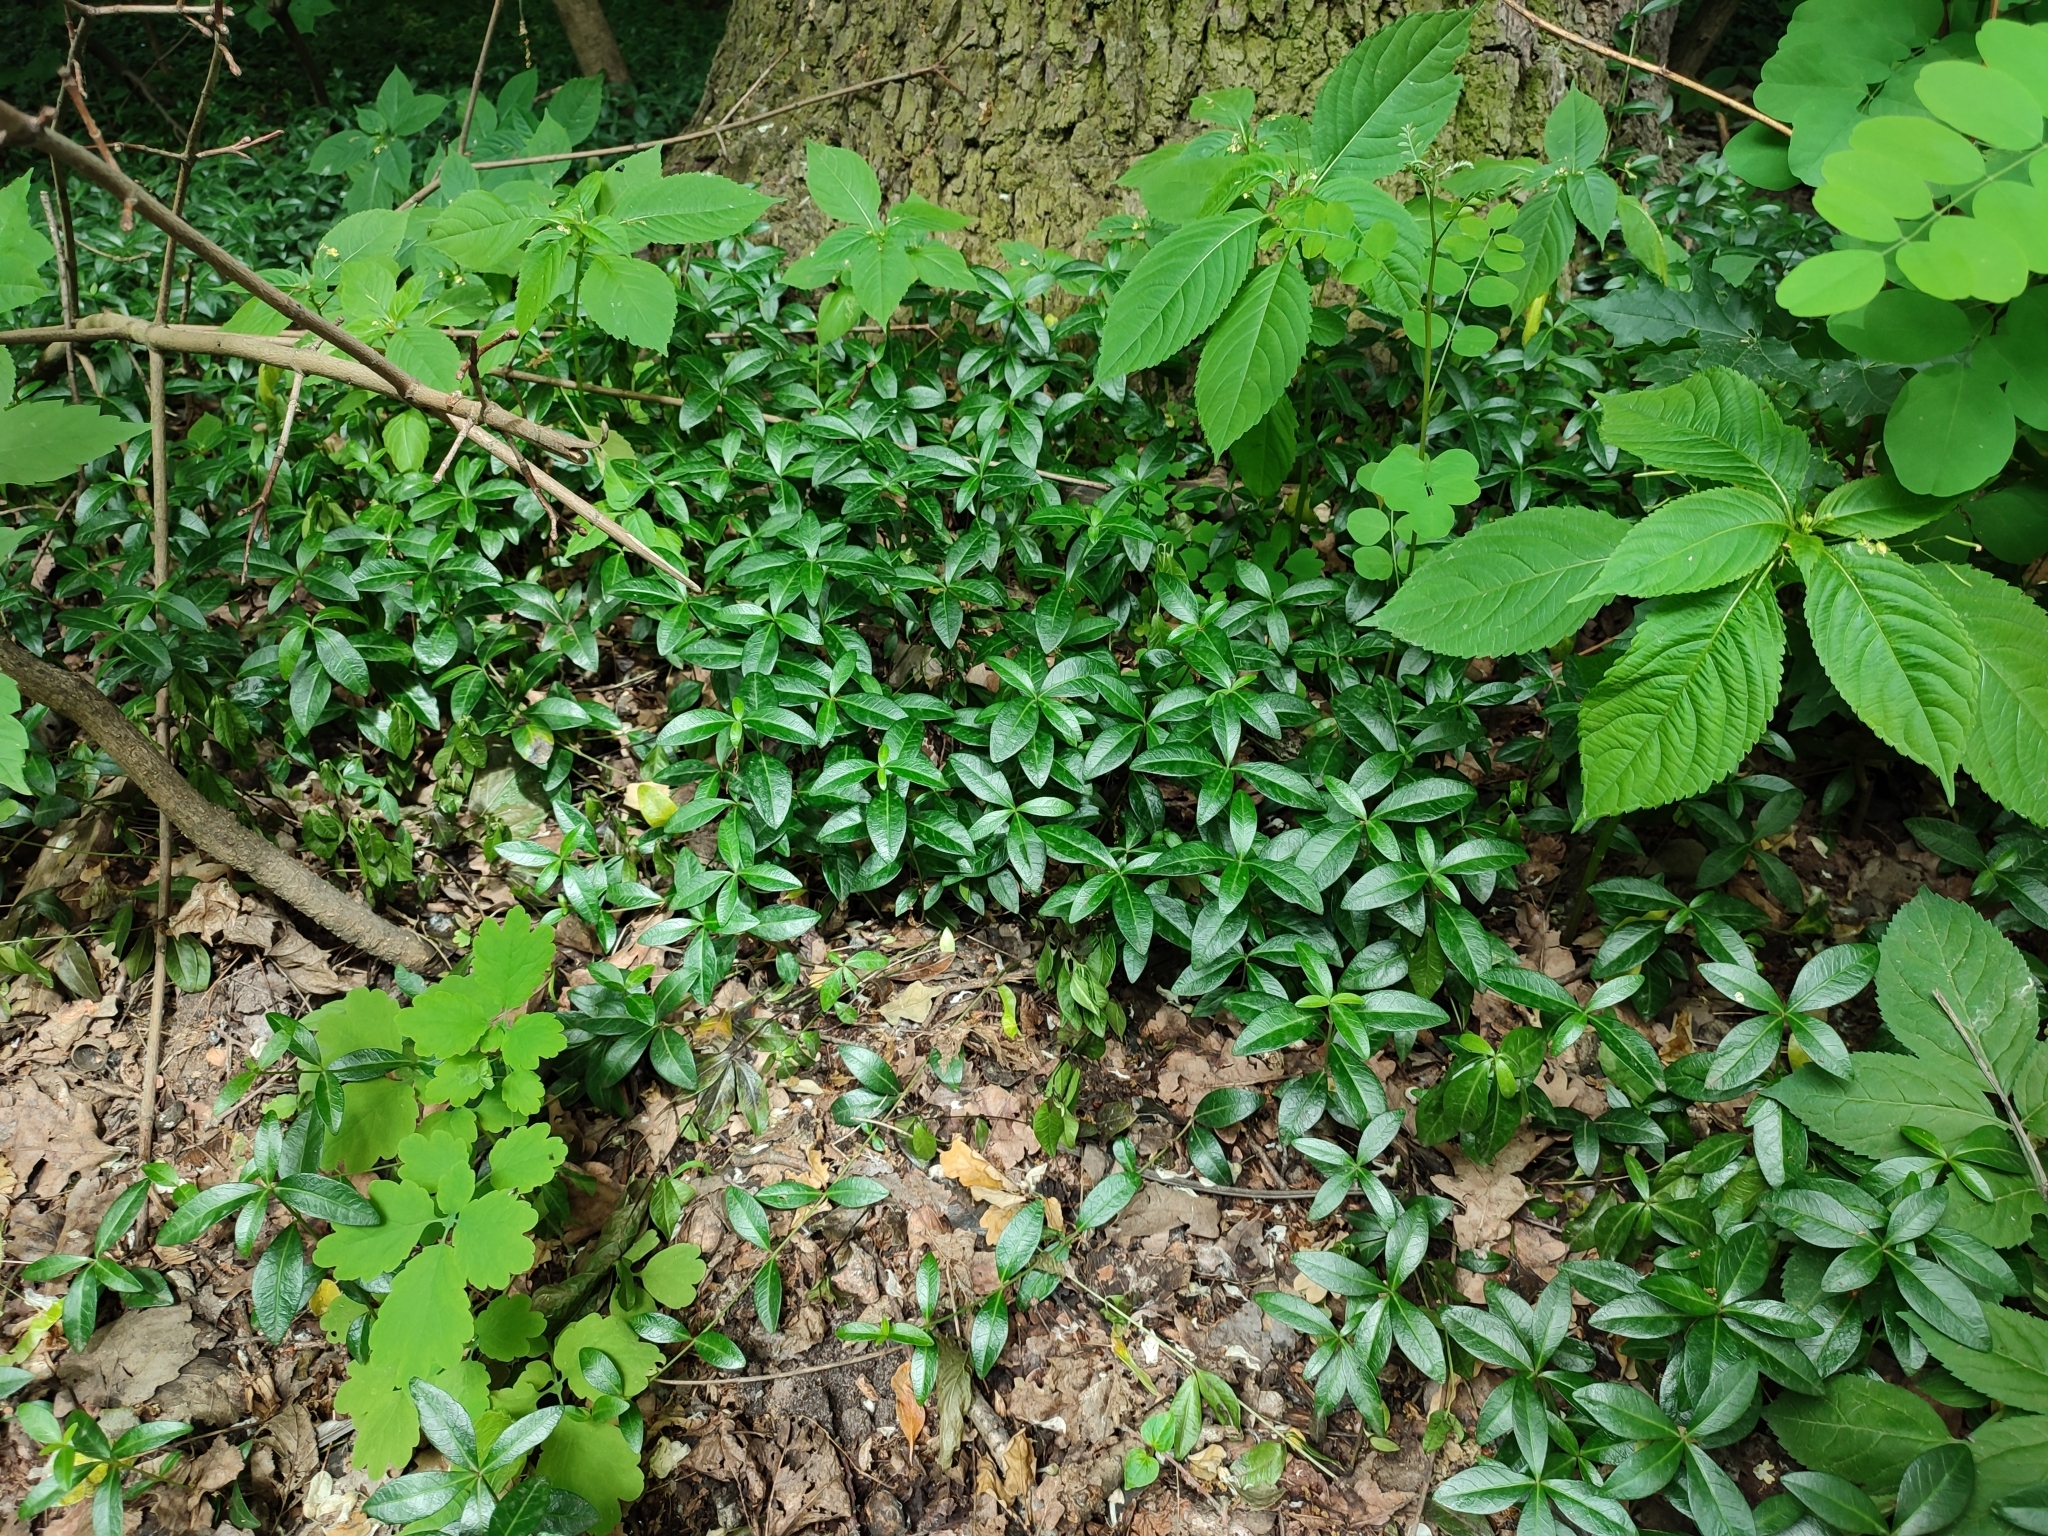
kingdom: Plantae
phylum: Tracheophyta
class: Magnoliopsida
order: Gentianales
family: Apocynaceae
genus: Vinca
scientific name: Vinca minor
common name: Lesser periwinkle
